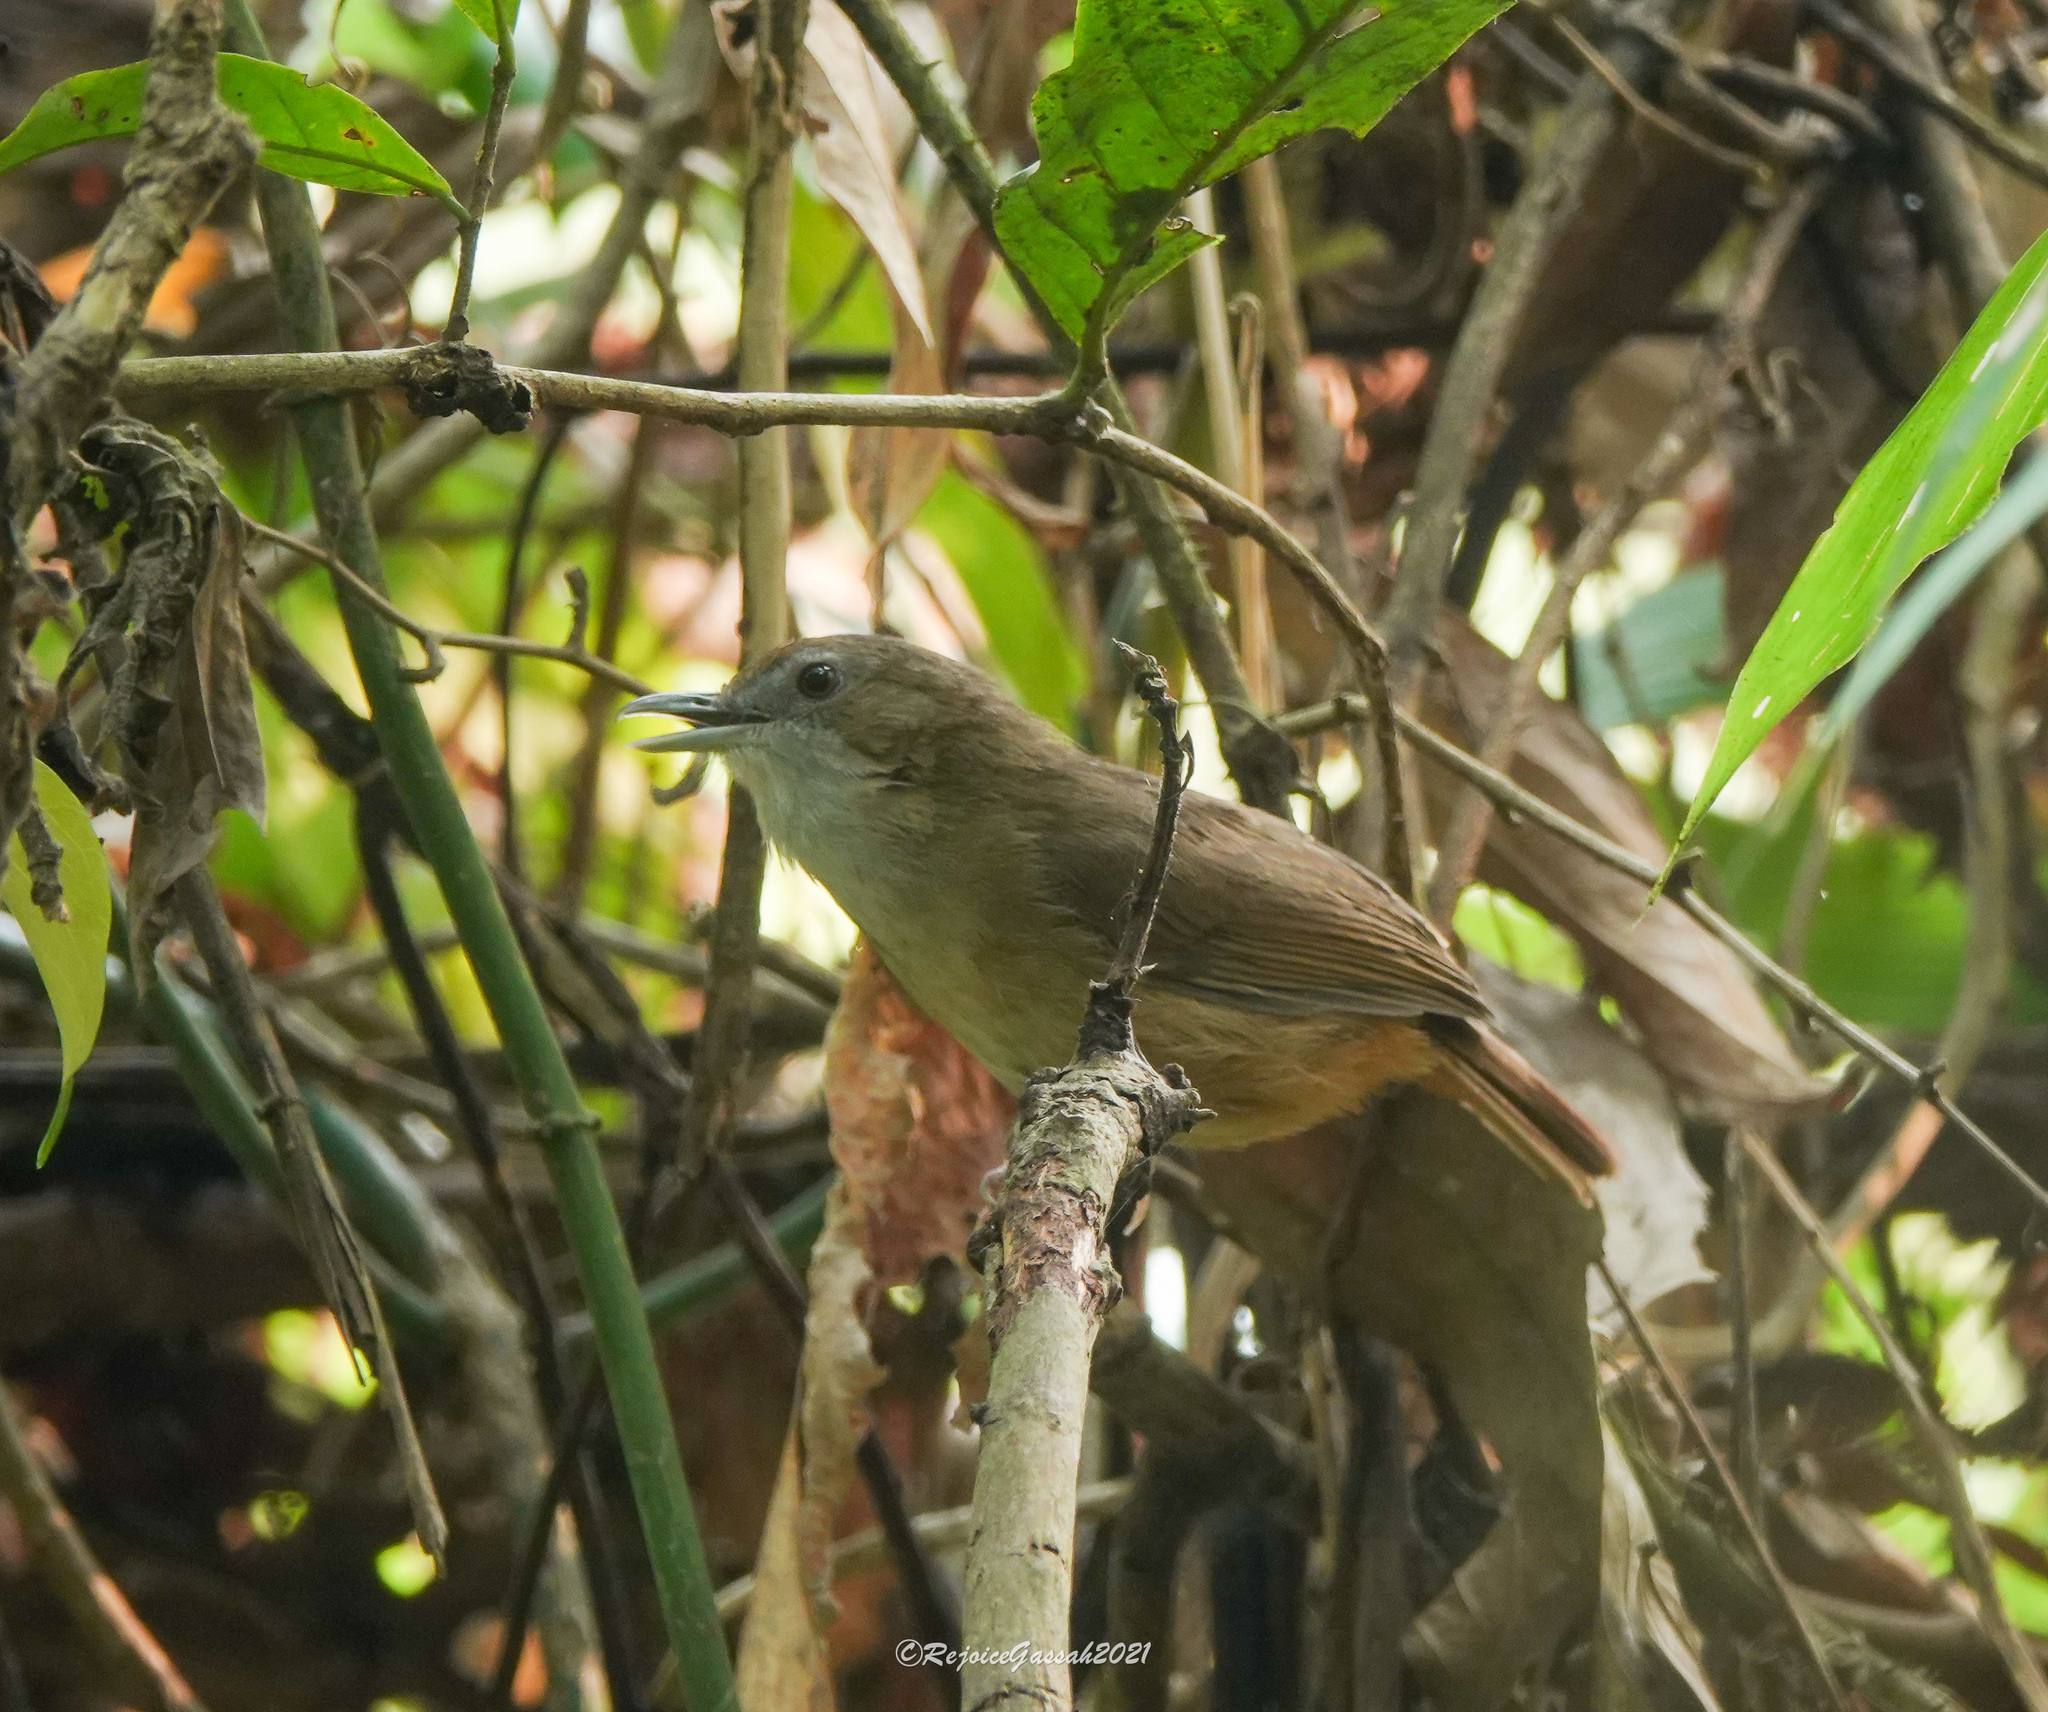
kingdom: Animalia
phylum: Chordata
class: Aves
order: Passeriformes
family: Pellorneidae
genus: Malacocincla
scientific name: Malacocincla abbotti
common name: Abbott's babbler
